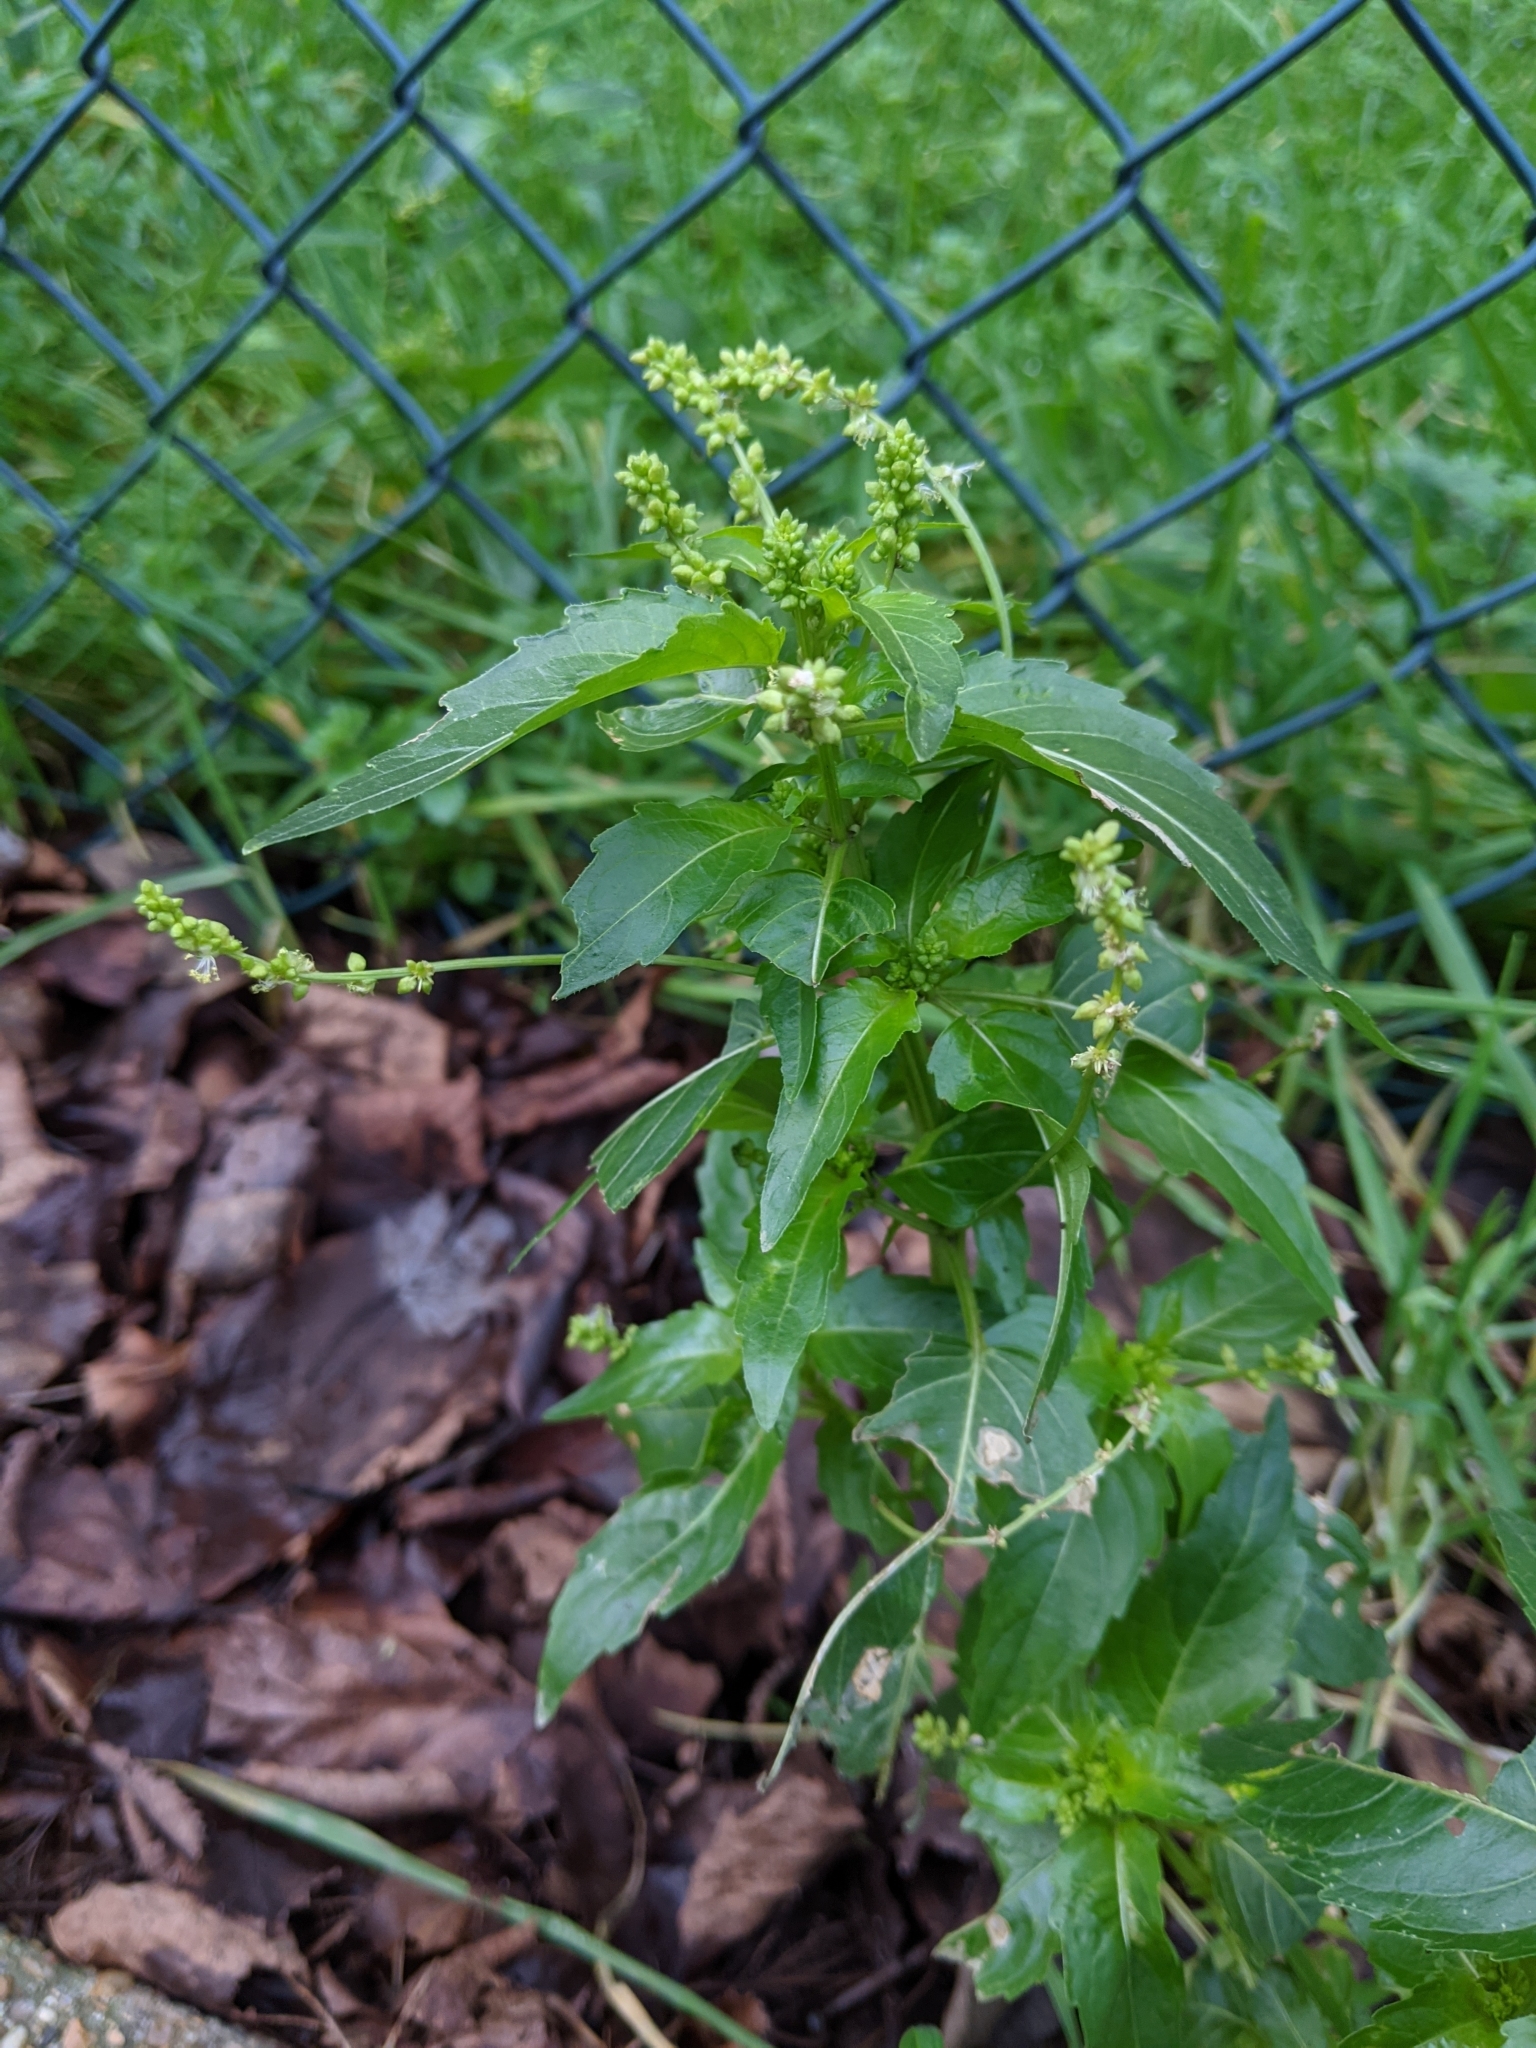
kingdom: Plantae
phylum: Tracheophyta
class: Magnoliopsida
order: Malpighiales
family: Euphorbiaceae
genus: Mercurialis
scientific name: Mercurialis annua
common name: Annual mercury
